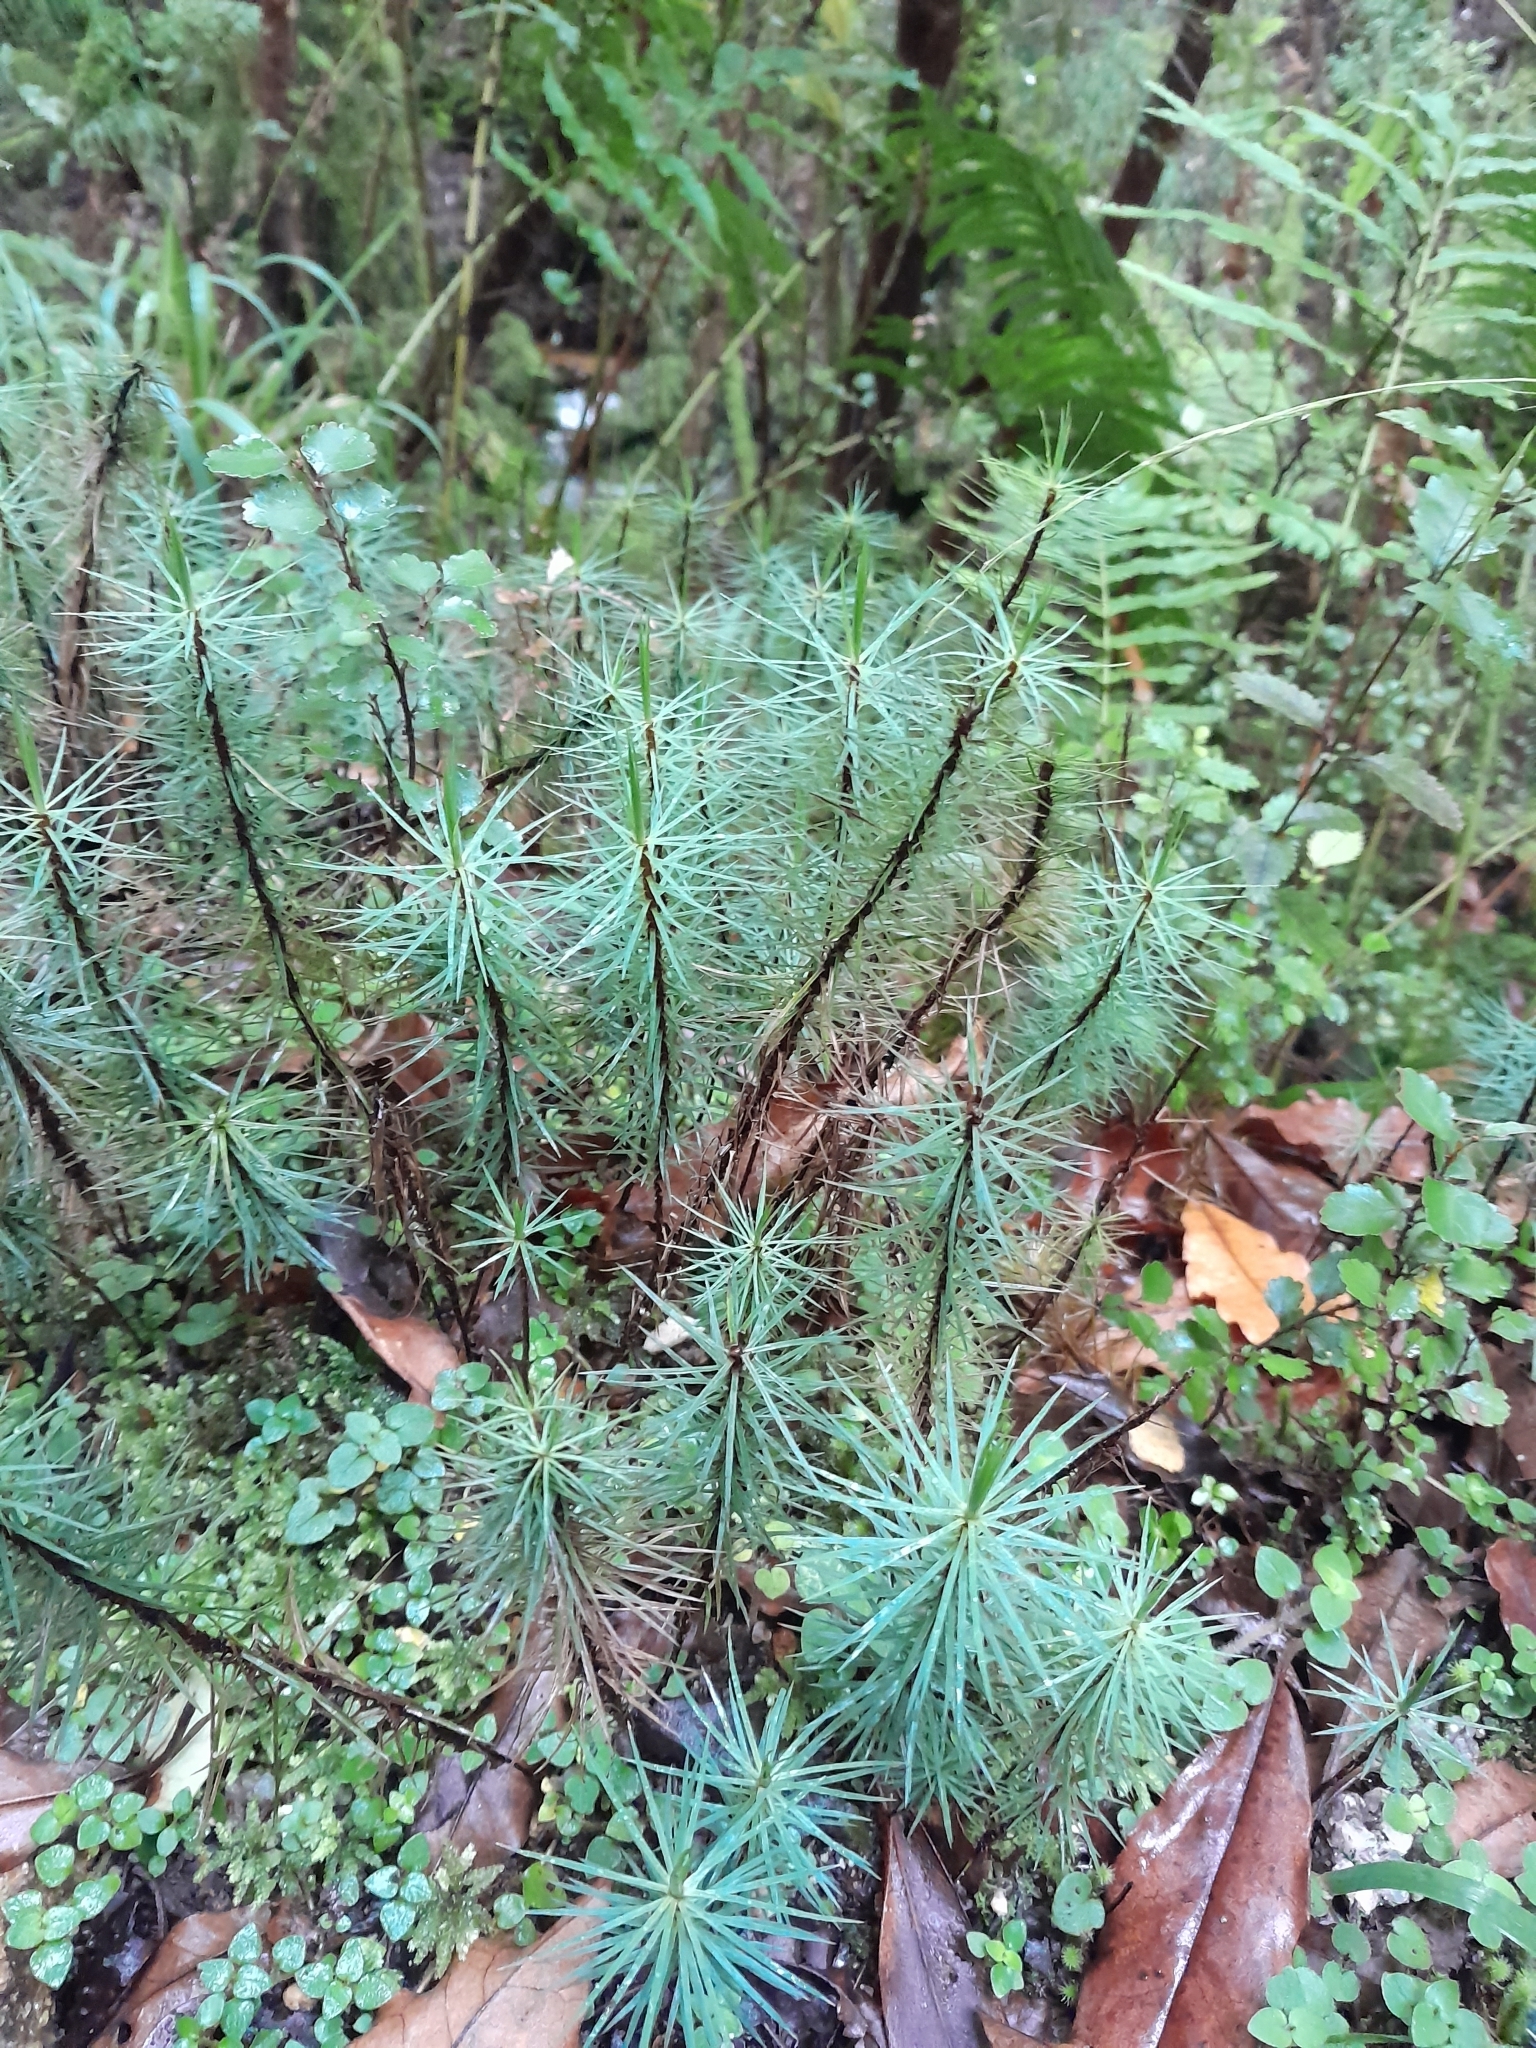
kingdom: Plantae
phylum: Bryophyta
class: Polytrichopsida
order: Polytrichales
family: Polytrichaceae
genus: Dawsonia
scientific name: Dawsonia superba
